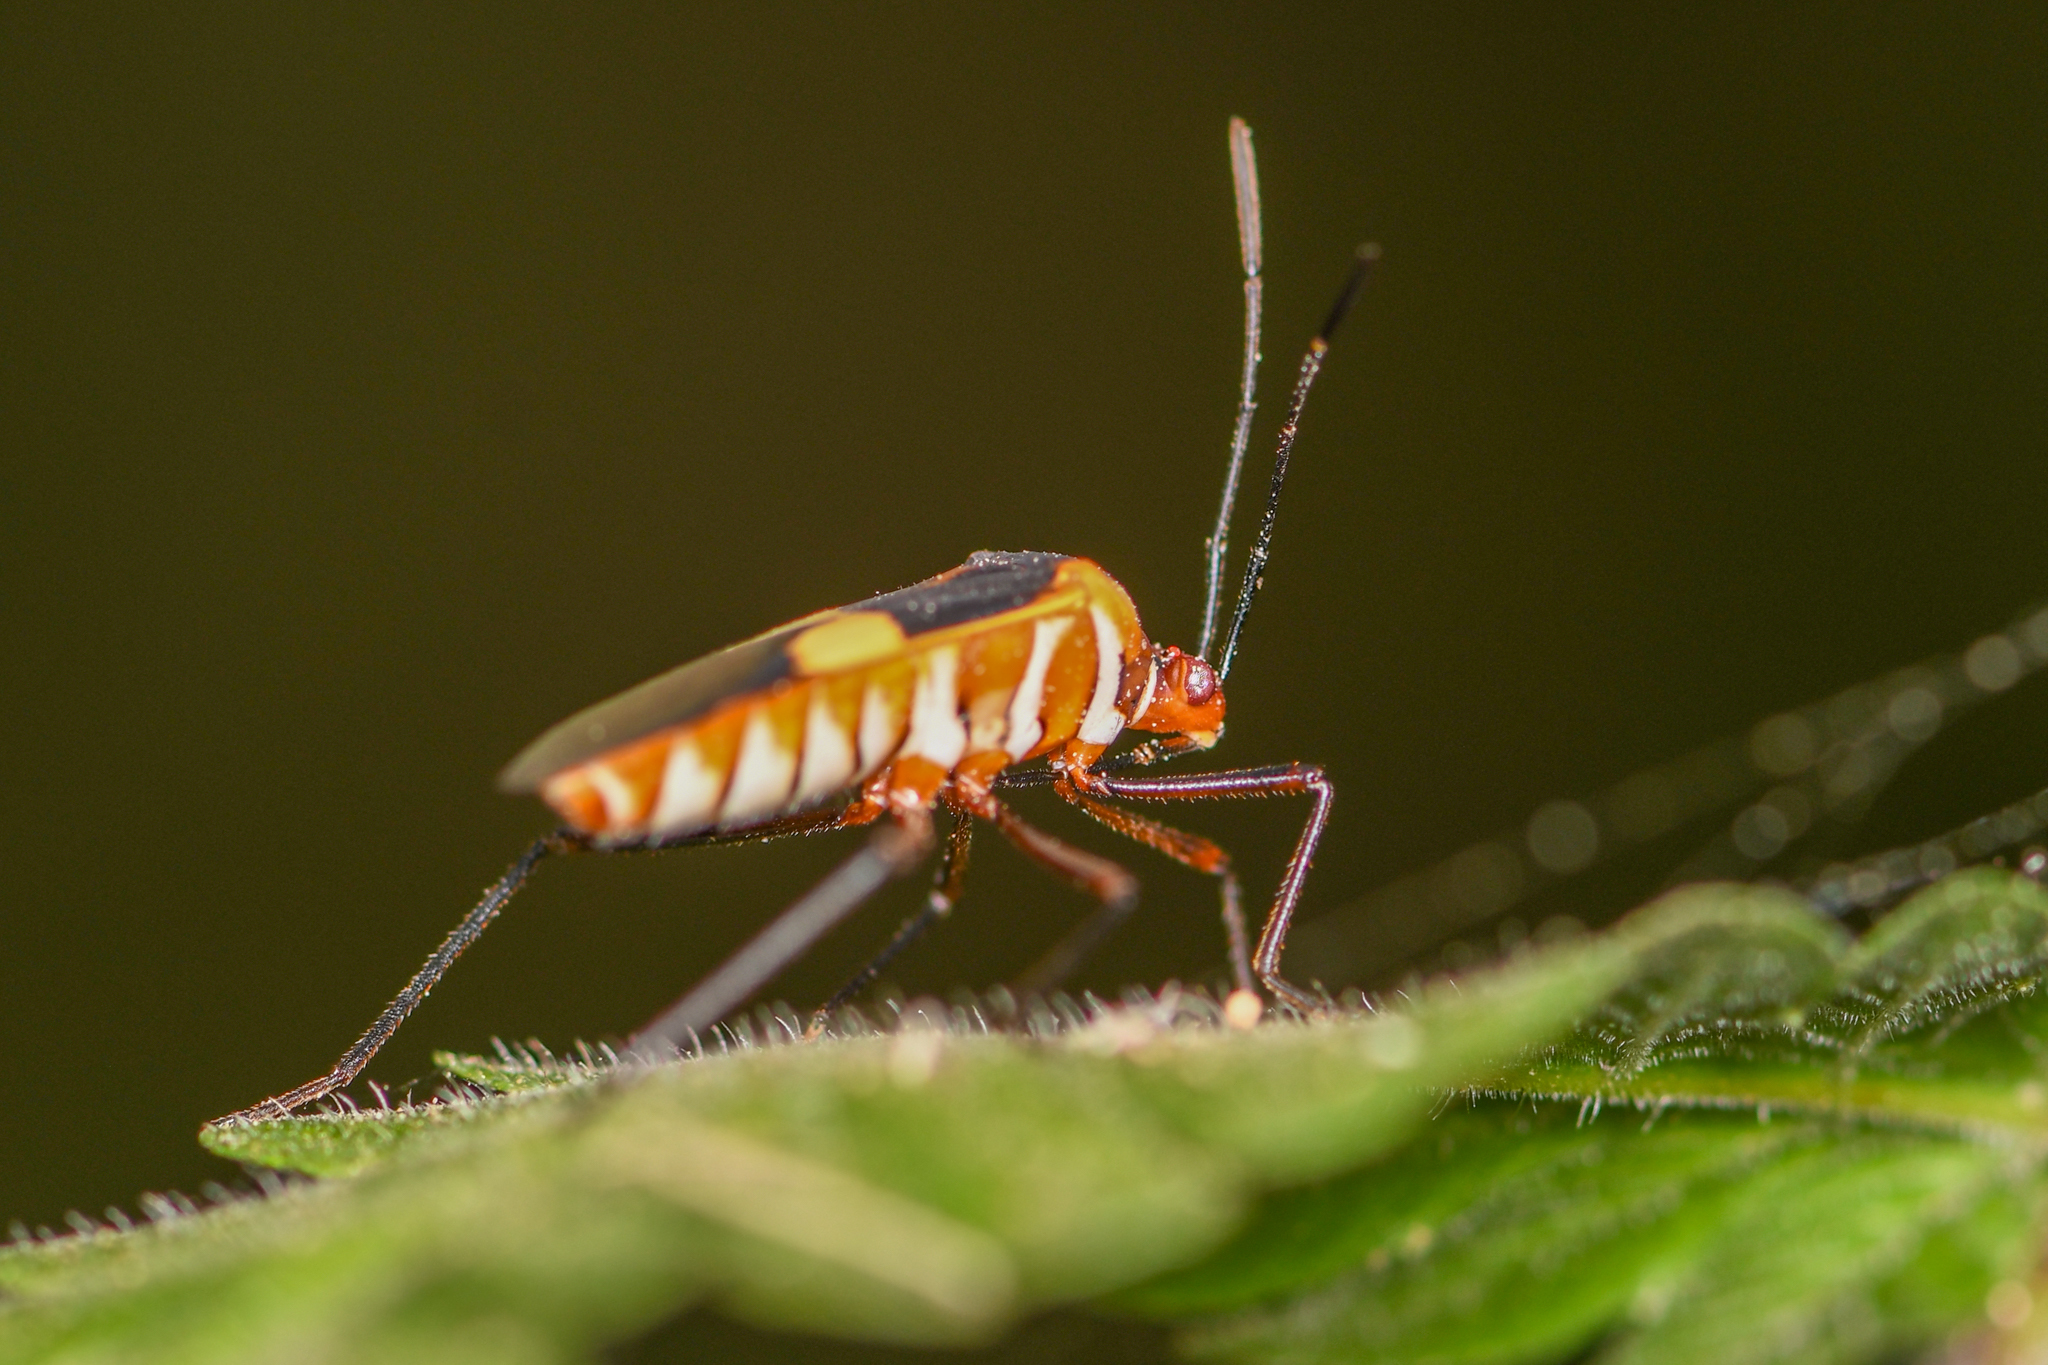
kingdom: Animalia
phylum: Arthropoda
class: Insecta
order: Hemiptera
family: Coreidae
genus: Hypselonotus
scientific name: Hypselonotus interruptus
